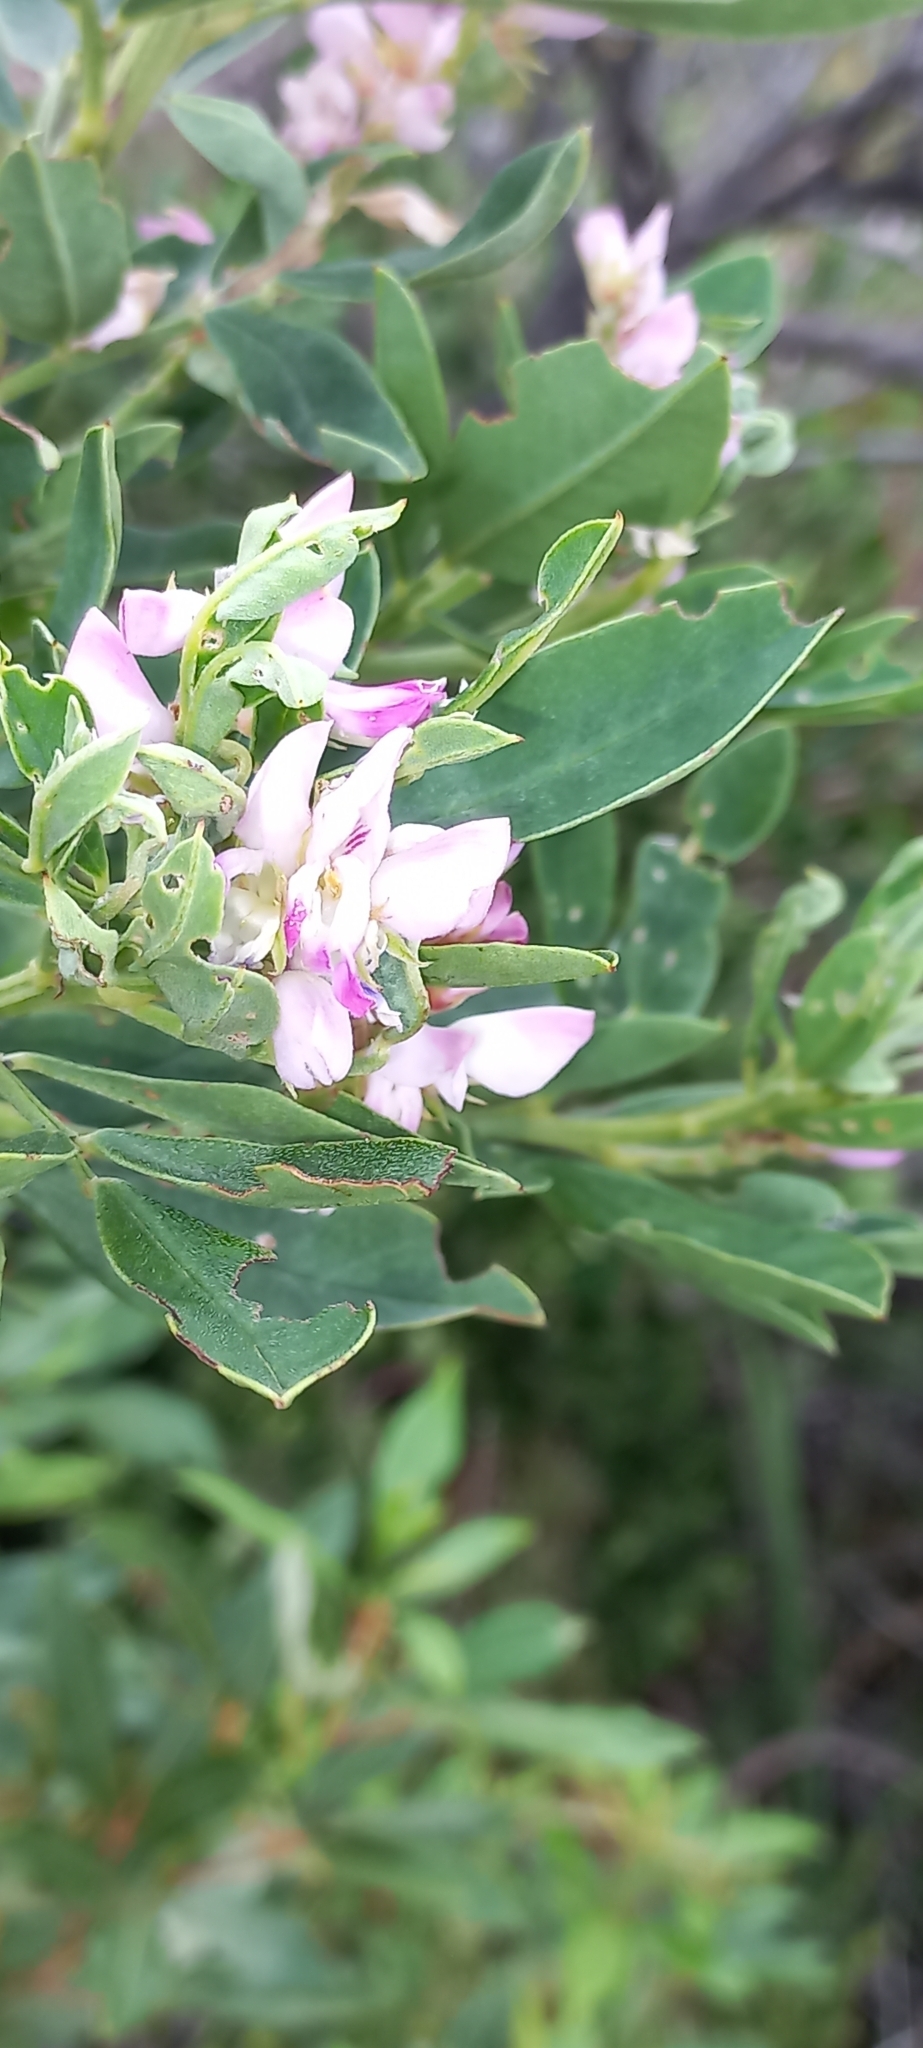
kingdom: Plantae
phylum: Tracheophyta
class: Magnoliopsida
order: Fabales
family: Fabaceae
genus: Indigofera
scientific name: Indigofera cytisoides
